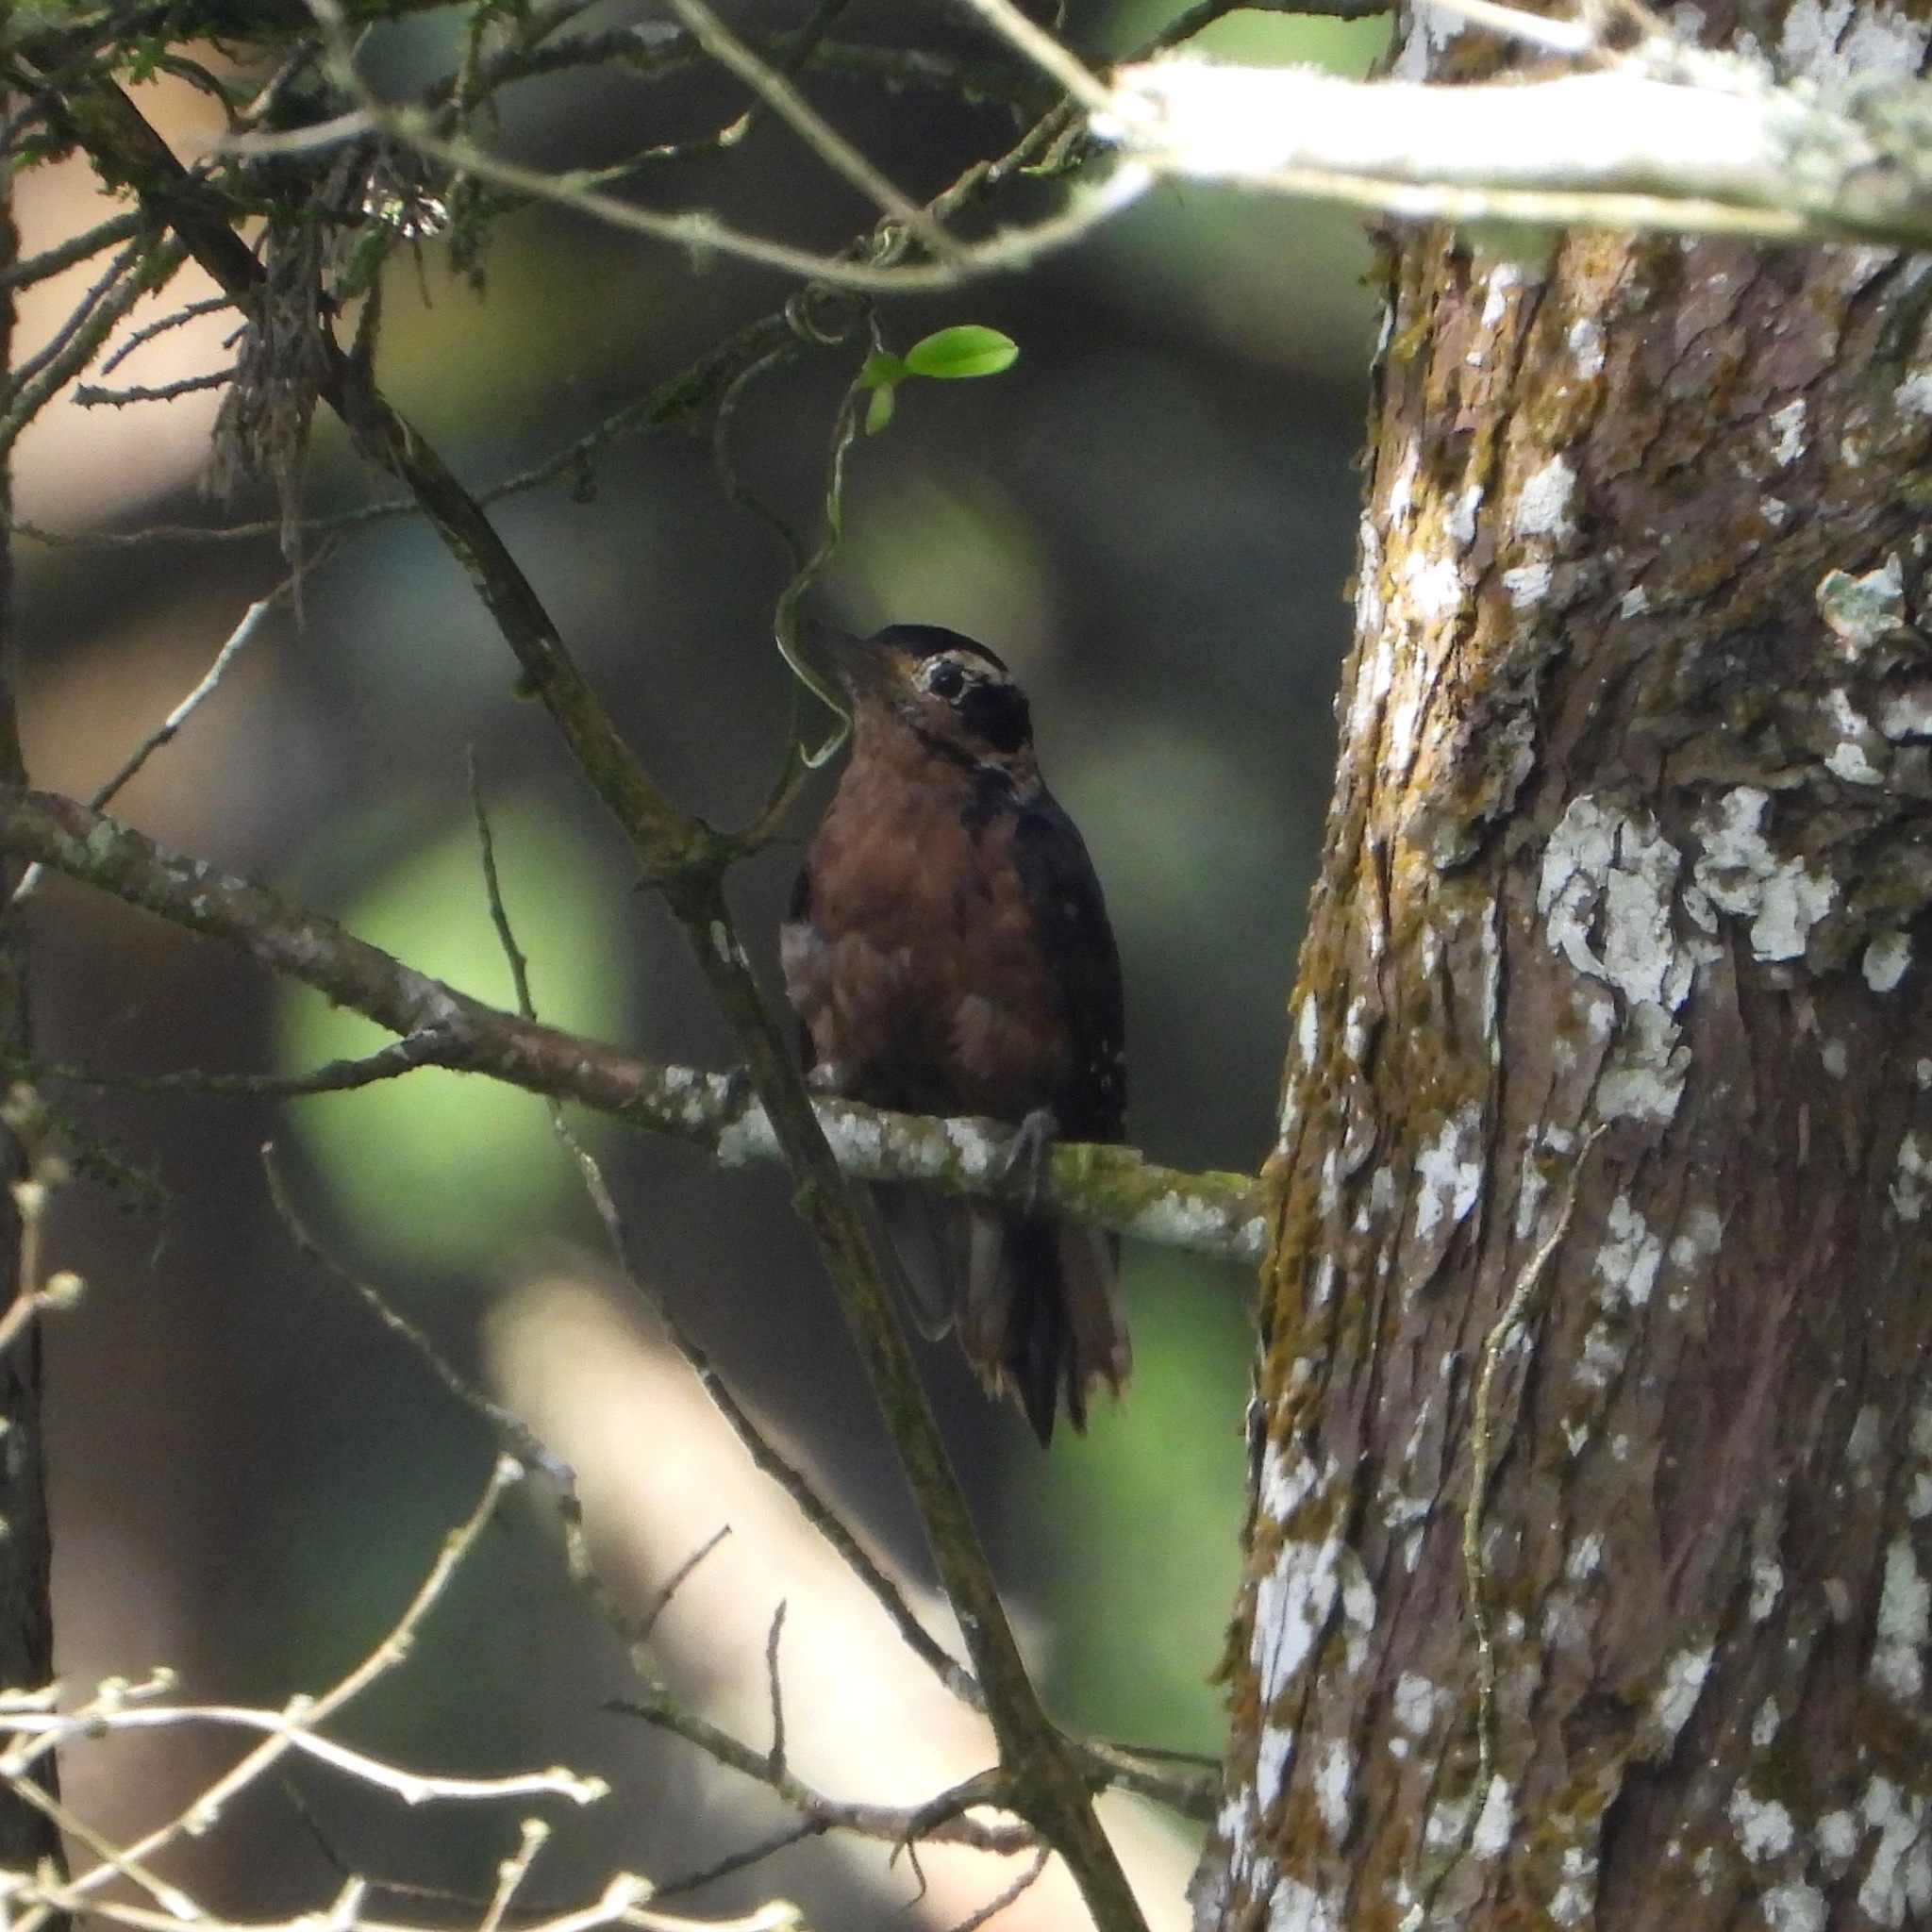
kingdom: Animalia
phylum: Chordata
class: Aves
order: Piciformes
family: Picidae
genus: Leuconotopicus
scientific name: Leuconotopicus villosus
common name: Hairy woodpecker
